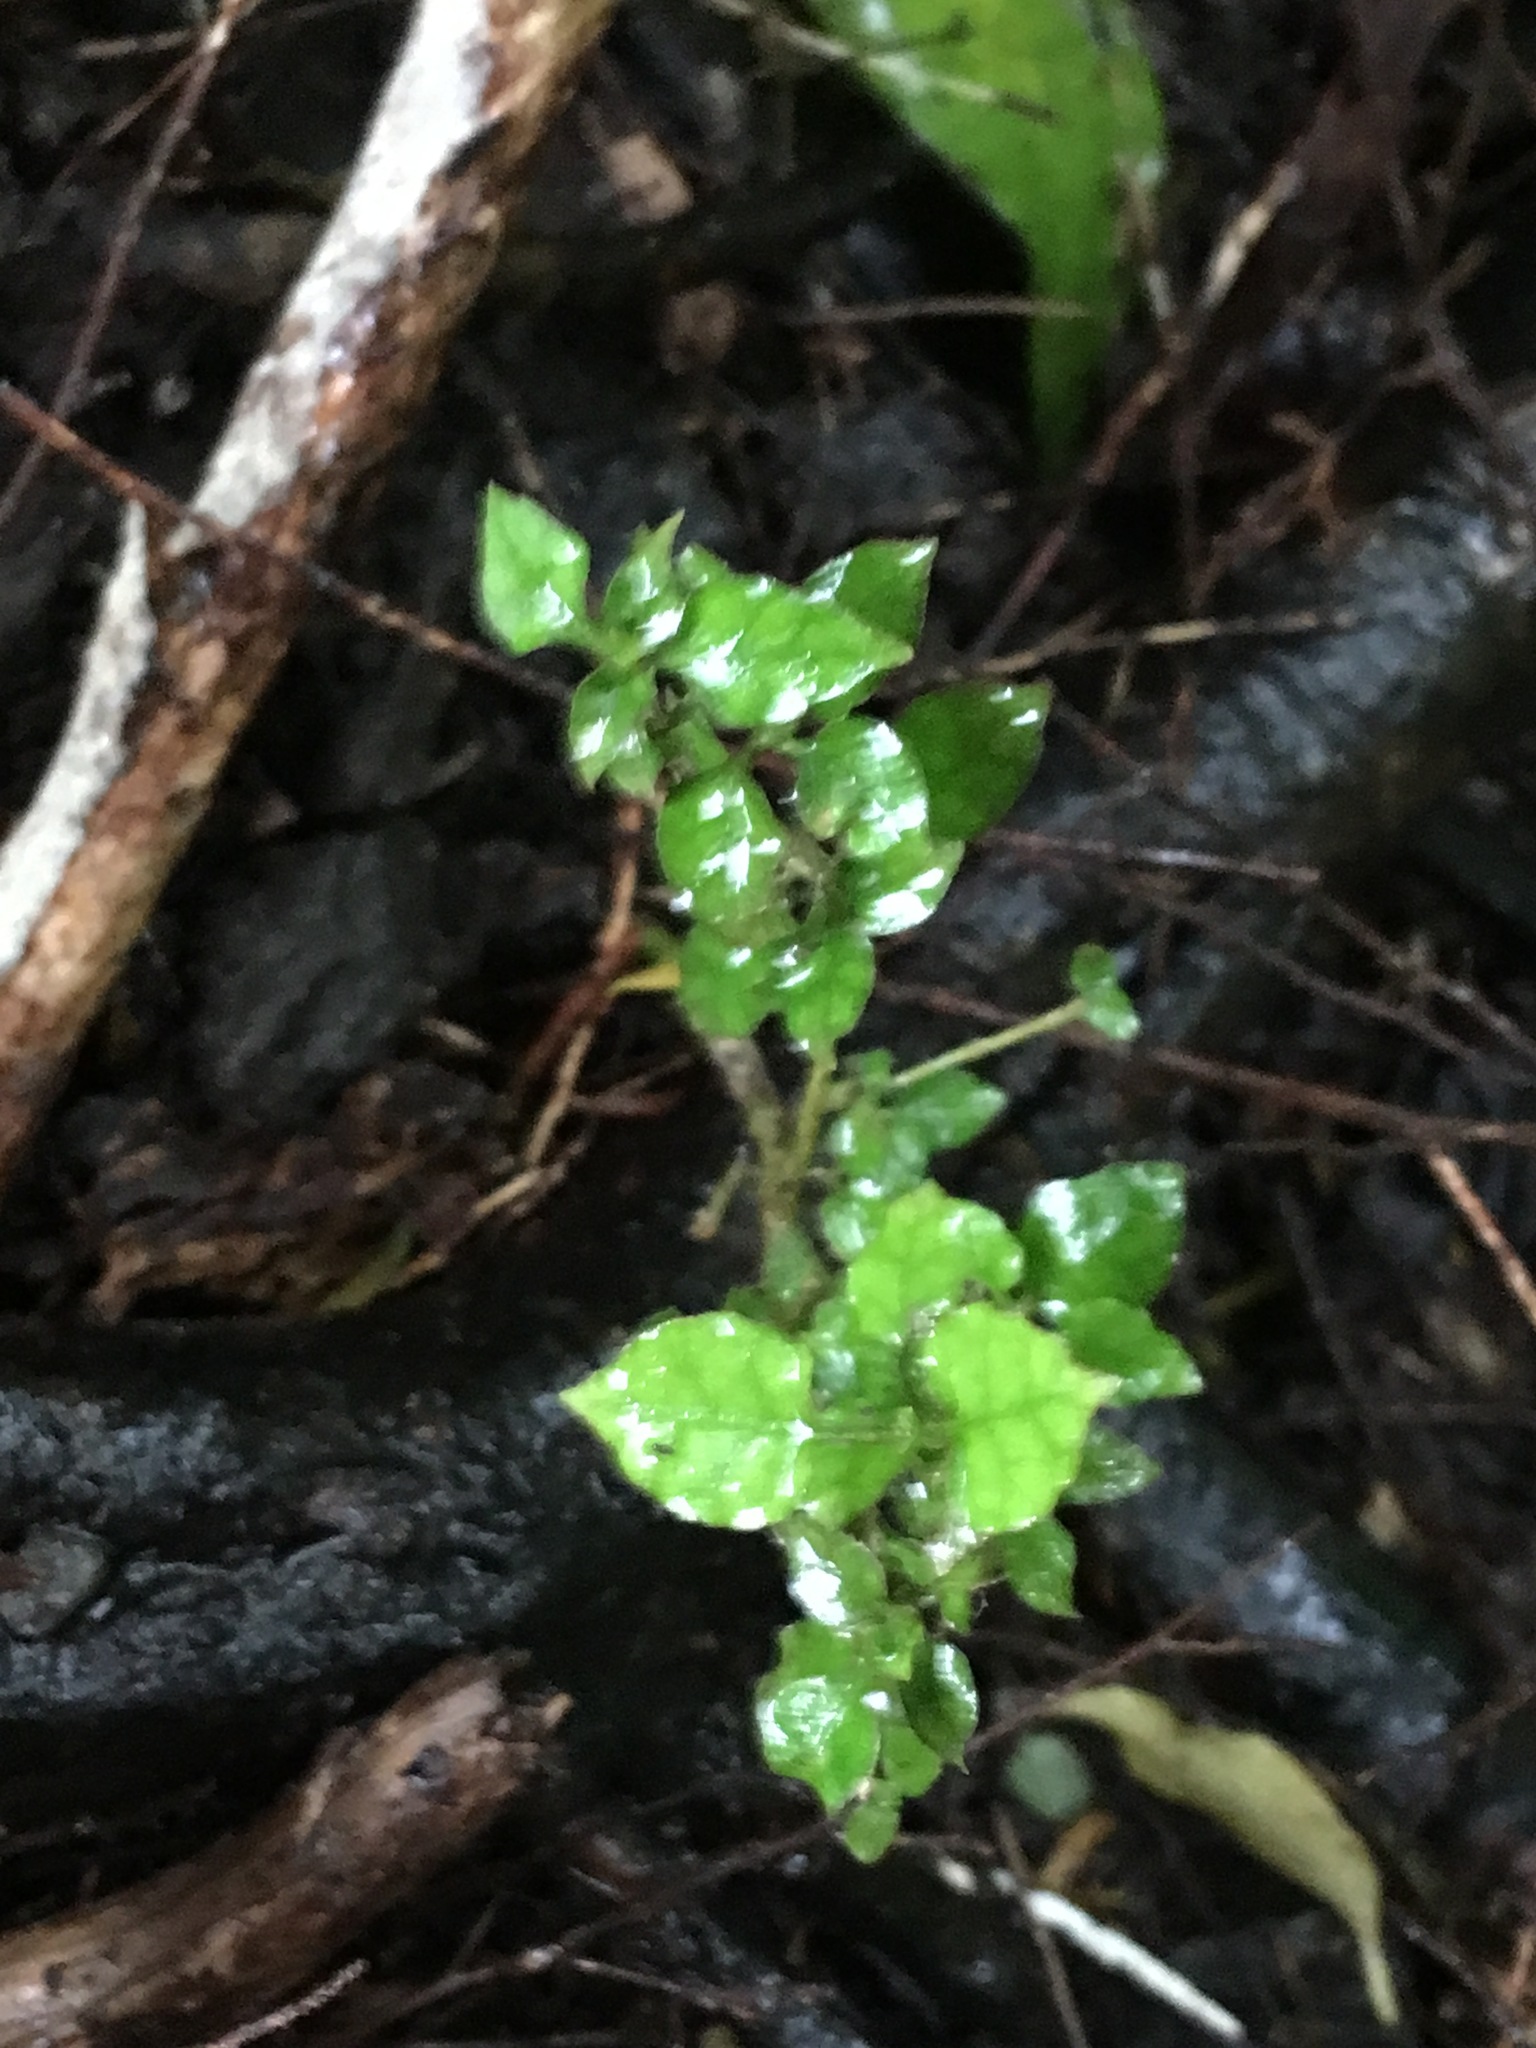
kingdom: Plantae
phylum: Tracheophyta
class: Magnoliopsida
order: Gentianales
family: Rubiaceae
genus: Coprosma
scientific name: Coprosma areolata
